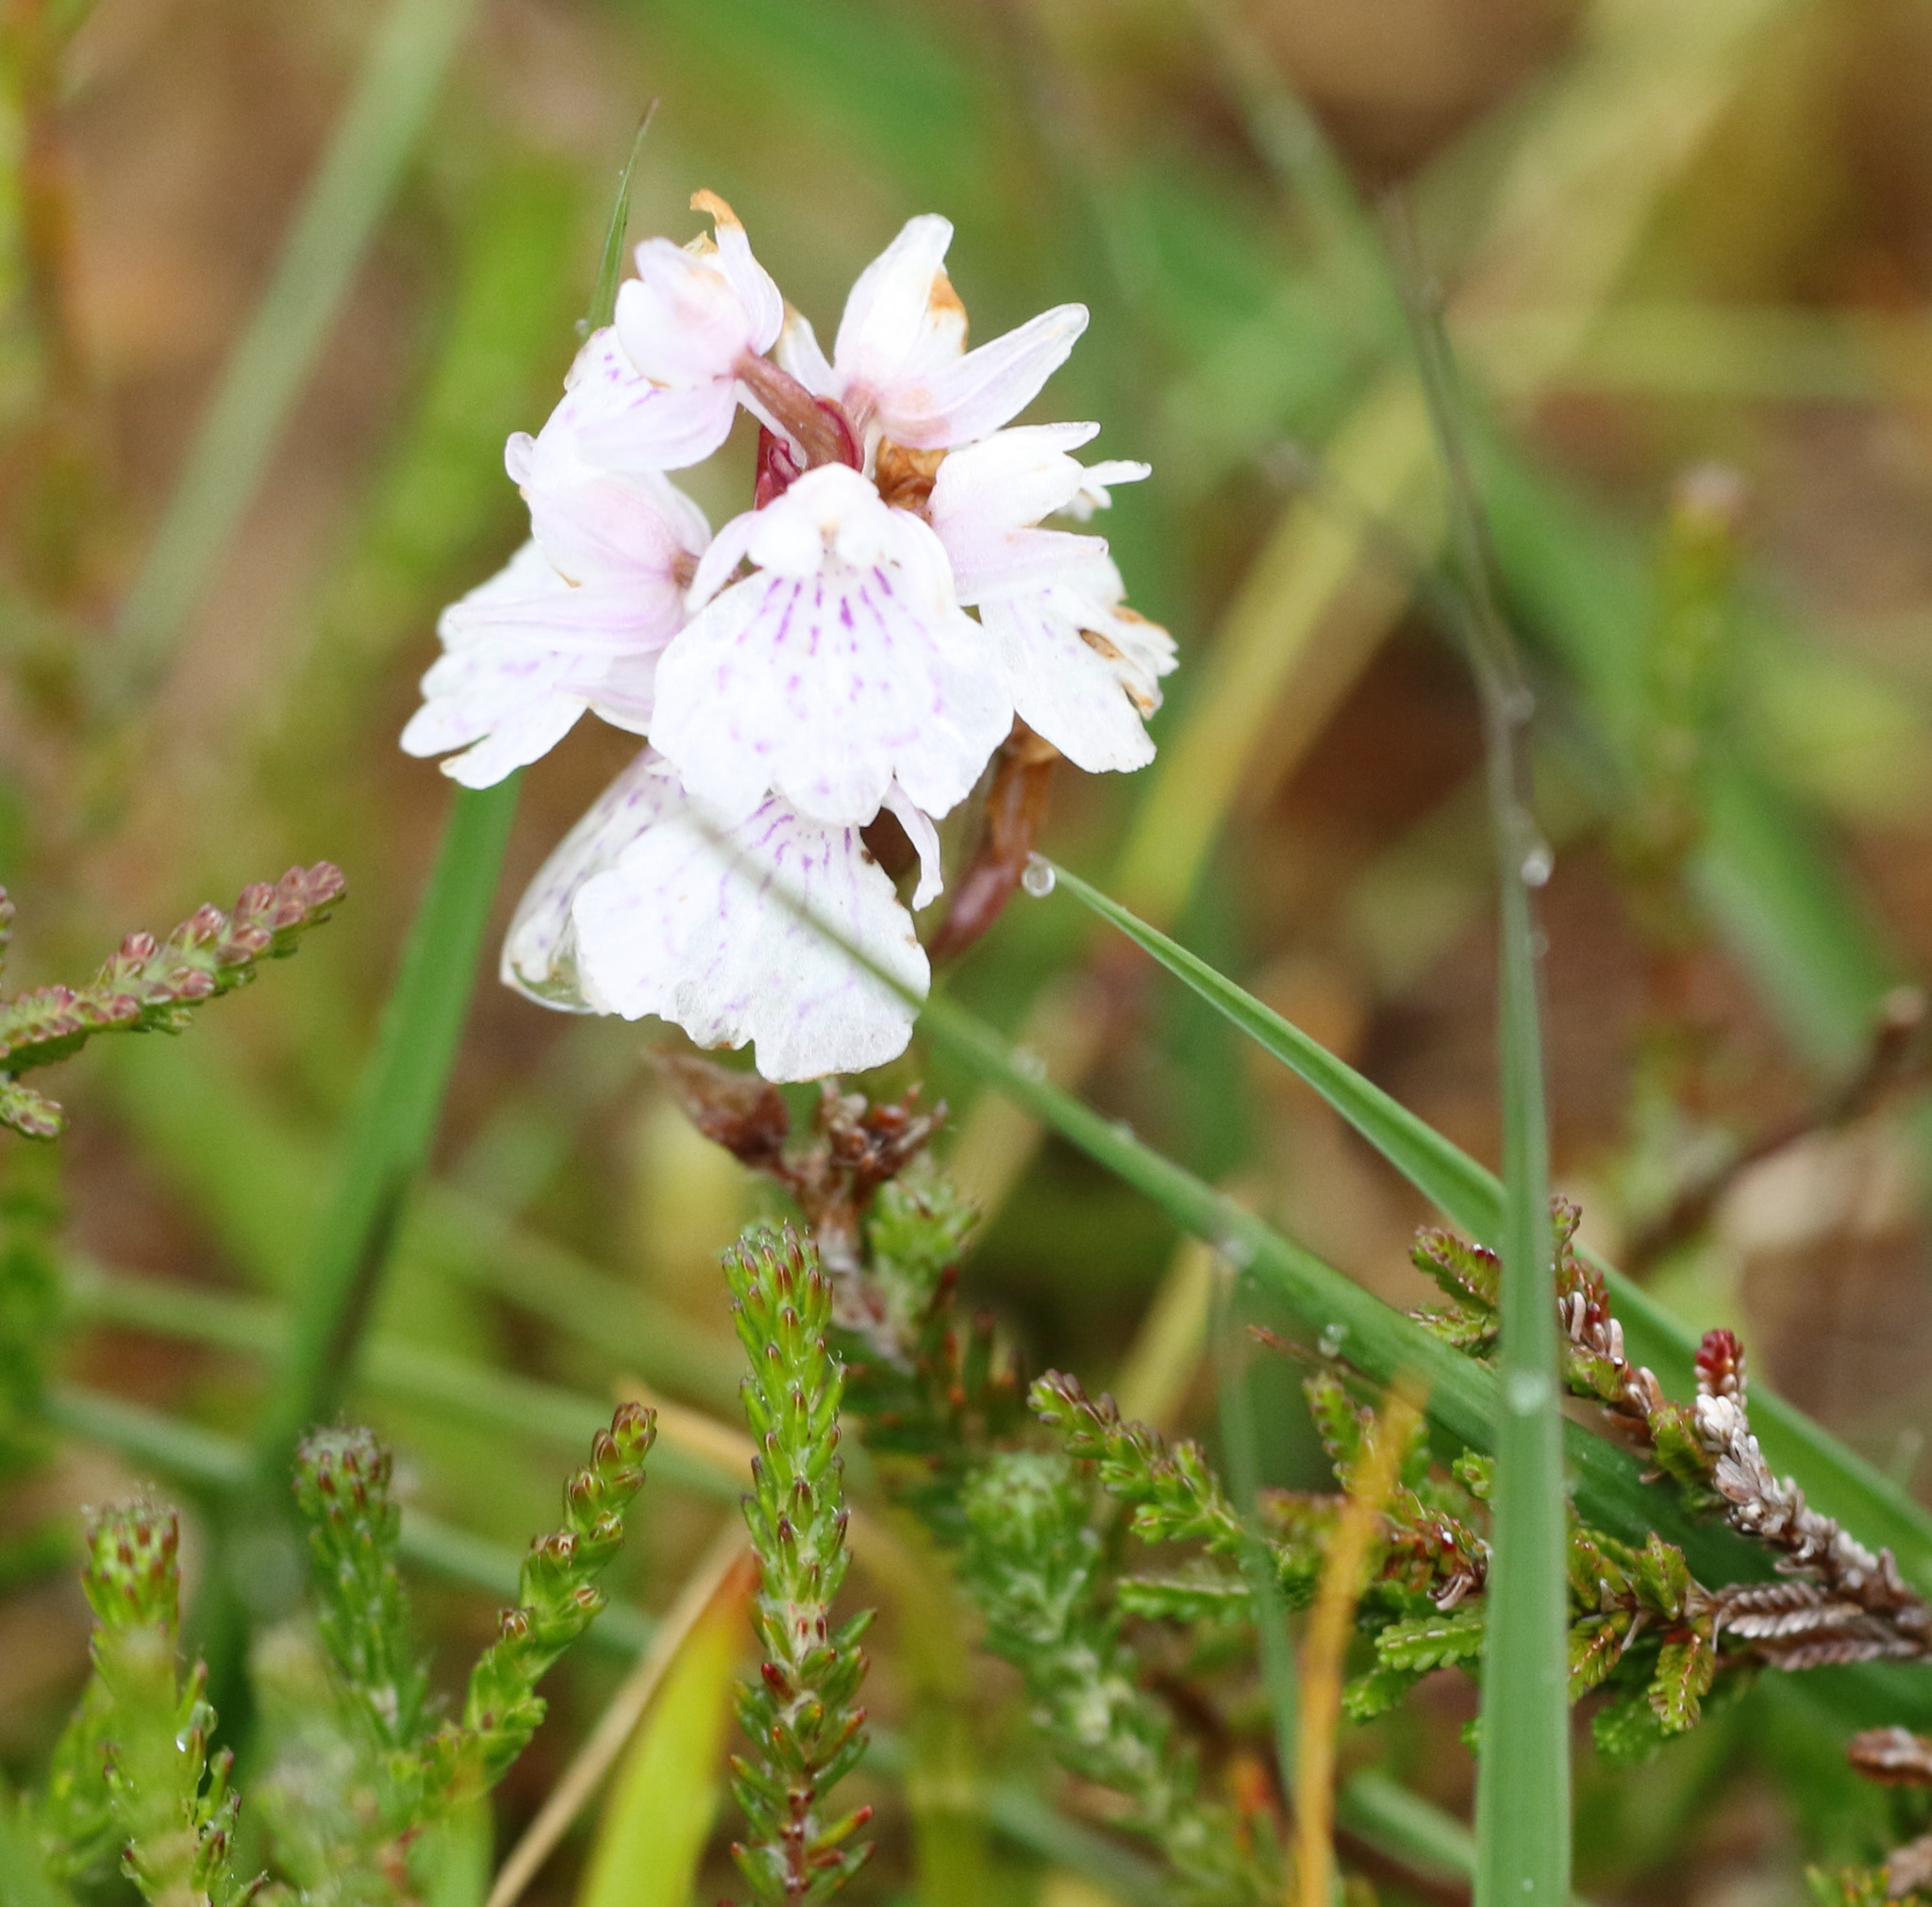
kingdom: Plantae
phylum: Tracheophyta
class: Liliopsida
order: Asparagales
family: Orchidaceae
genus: Dactylorhiza
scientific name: Dactylorhiza maculata
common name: Heath spotted-orchid
